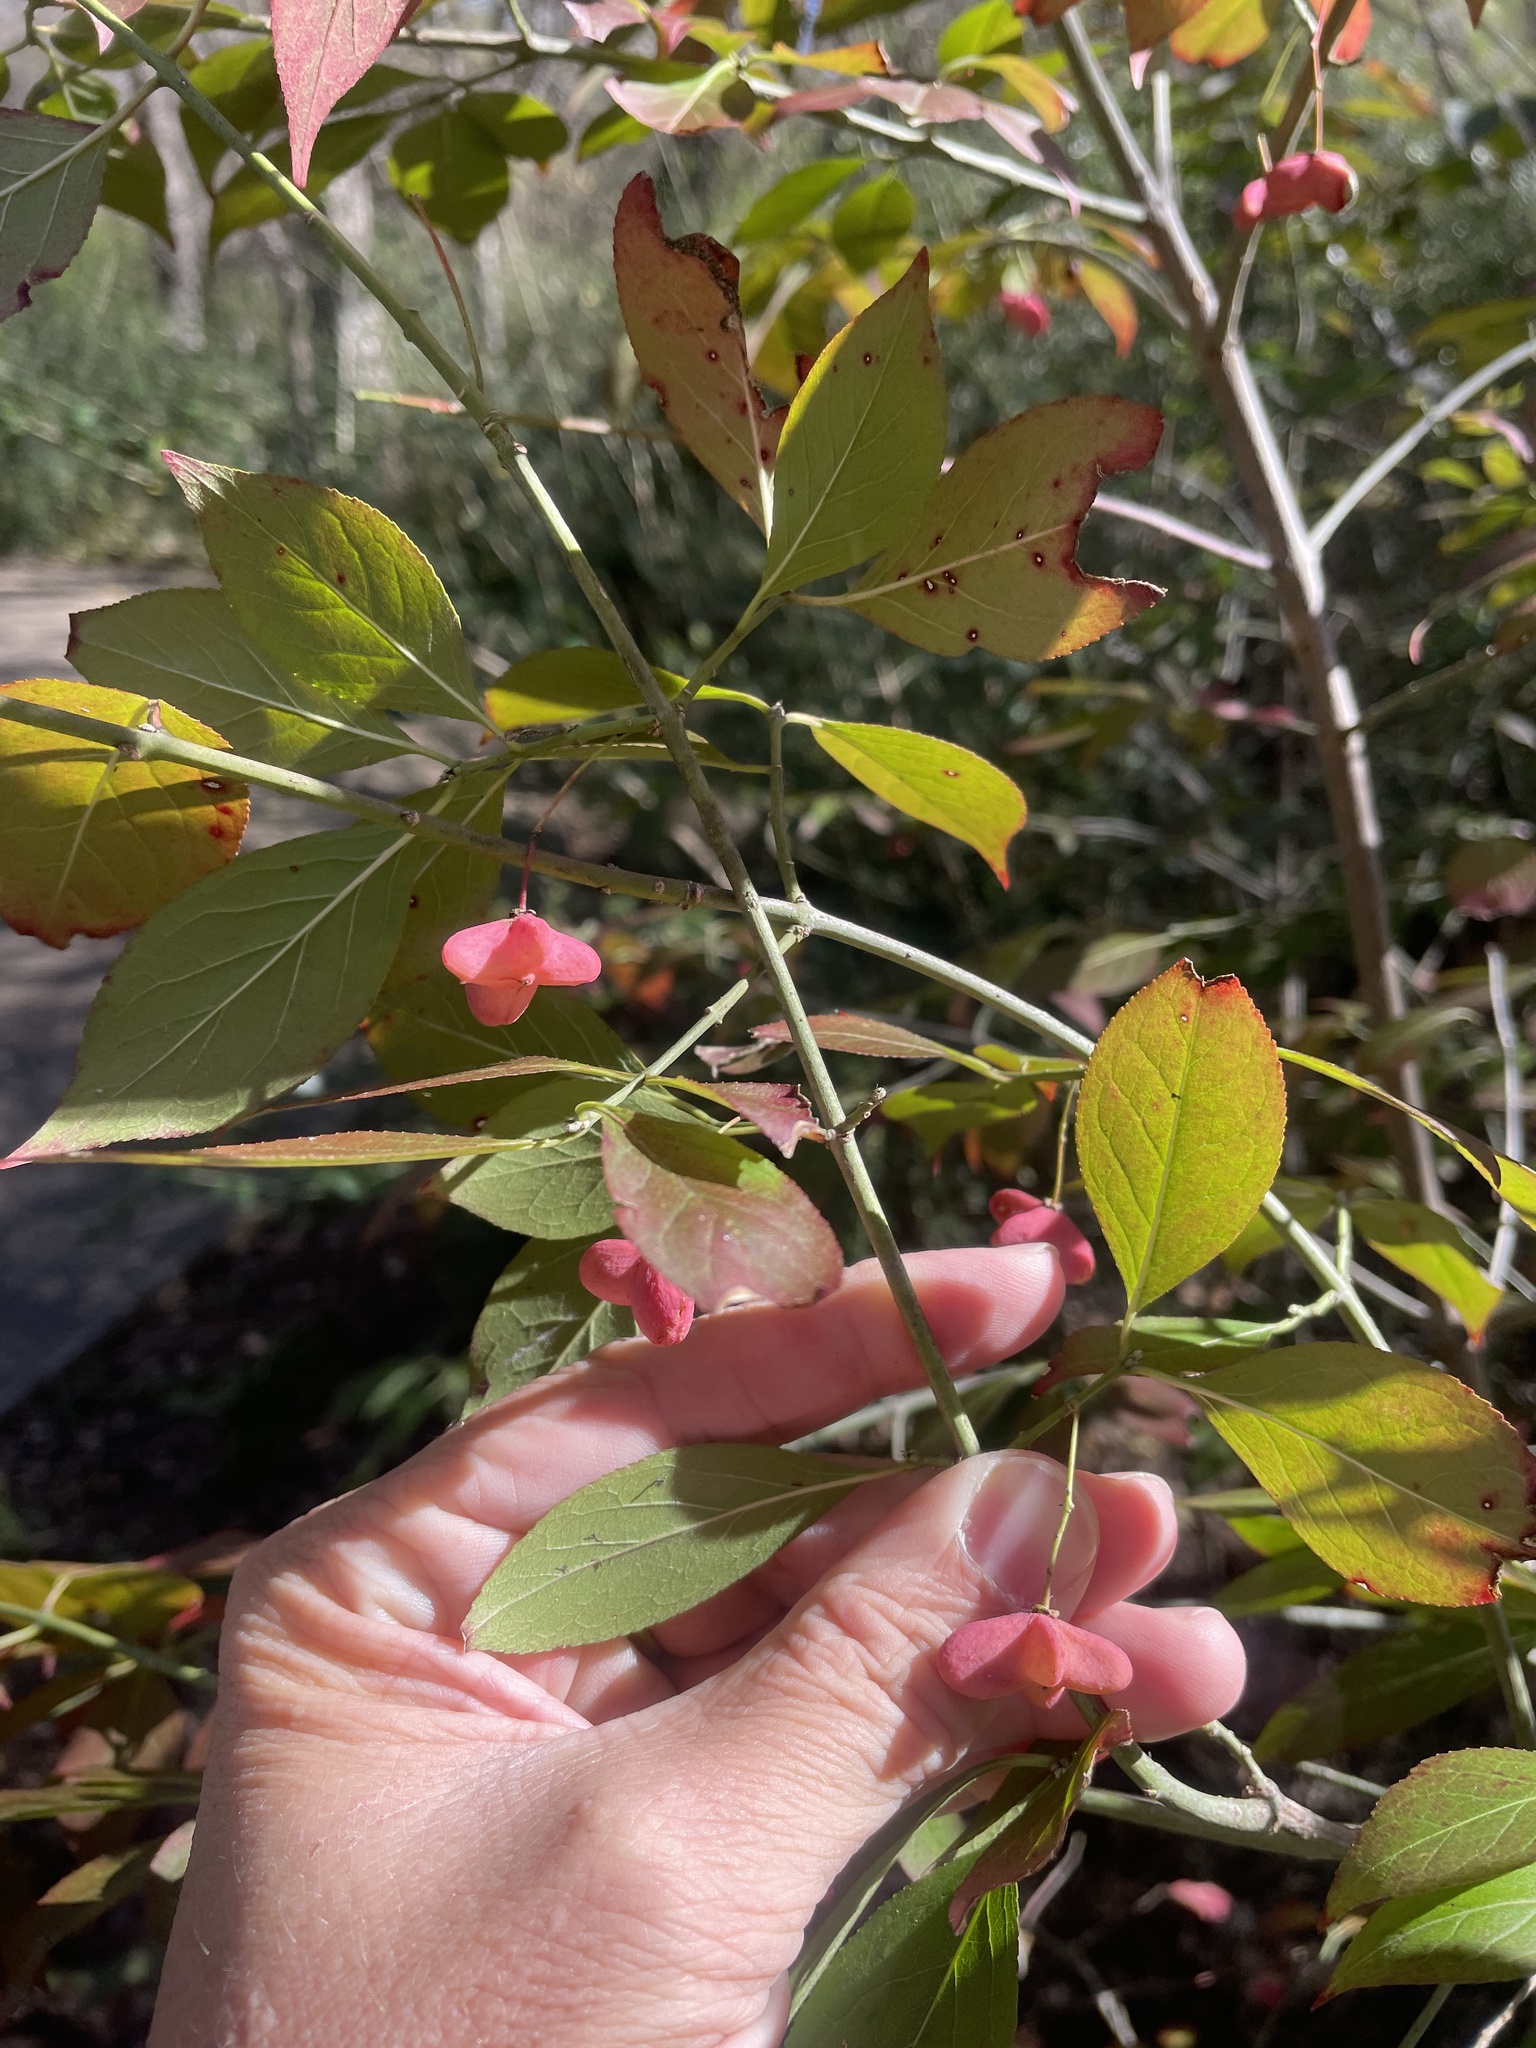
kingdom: Plantae
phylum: Tracheophyta
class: Magnoliopsida
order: Celastrales
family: Celastraceae
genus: Euonymus
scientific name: Euonymus atropurpureus
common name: Eastern wahoo
